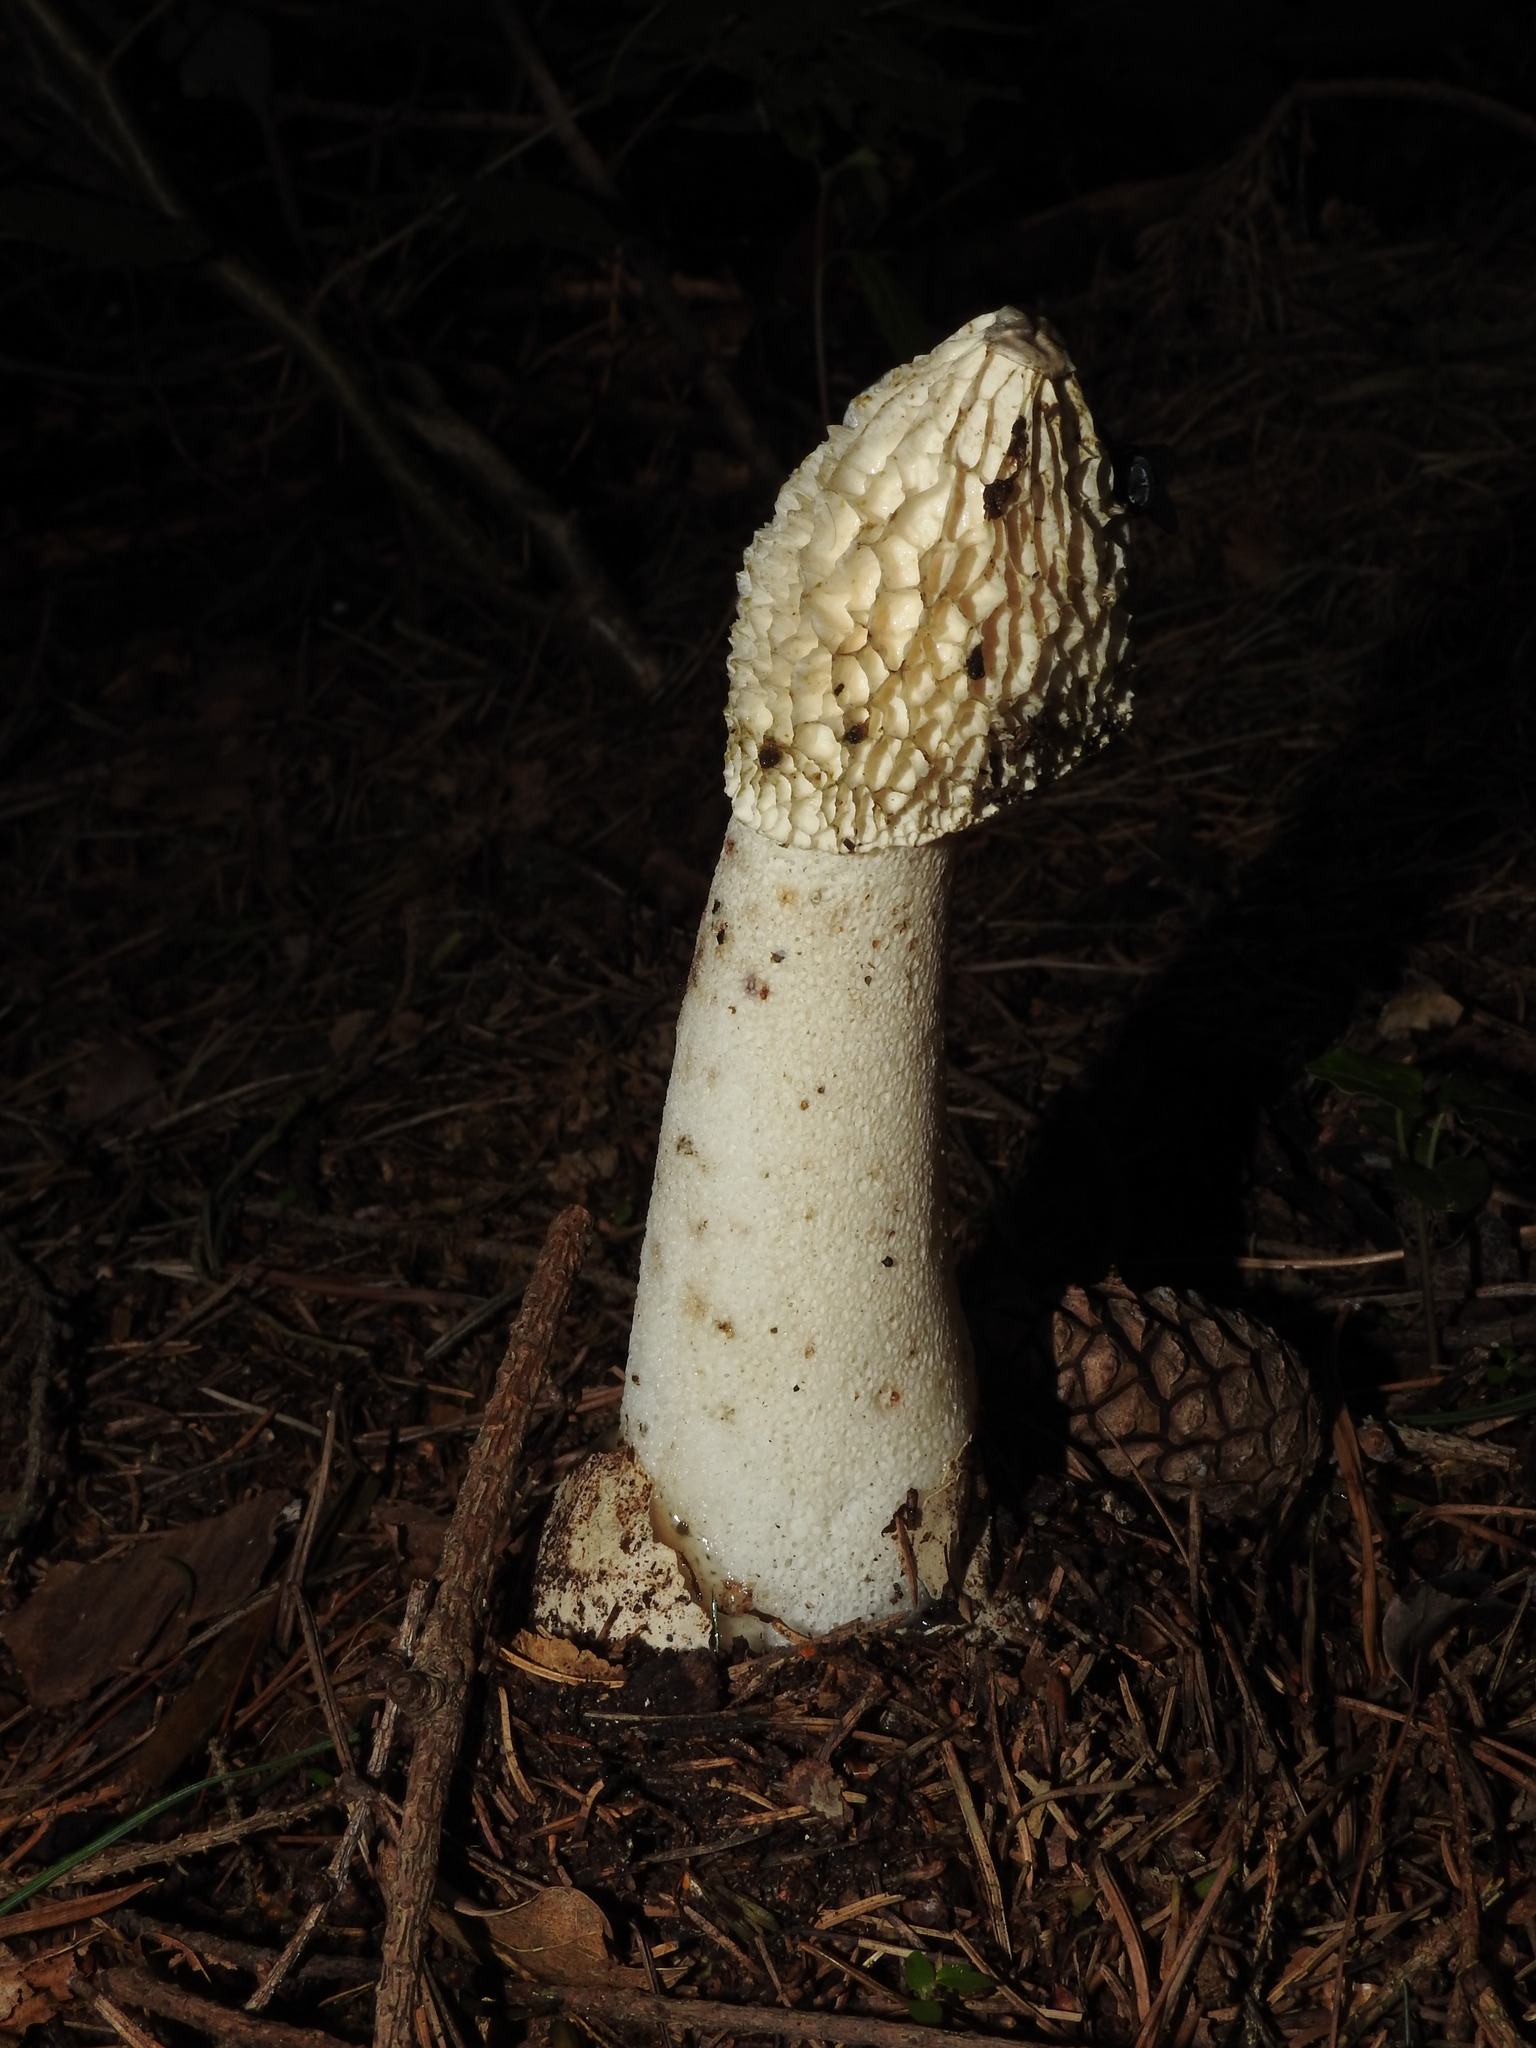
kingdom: Fungi
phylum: Basidiomycota
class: Agaricomycetes
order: Phallales
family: Phallaceae
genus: Phallus
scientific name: Phallus impudicus
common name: Common stinkhorn
